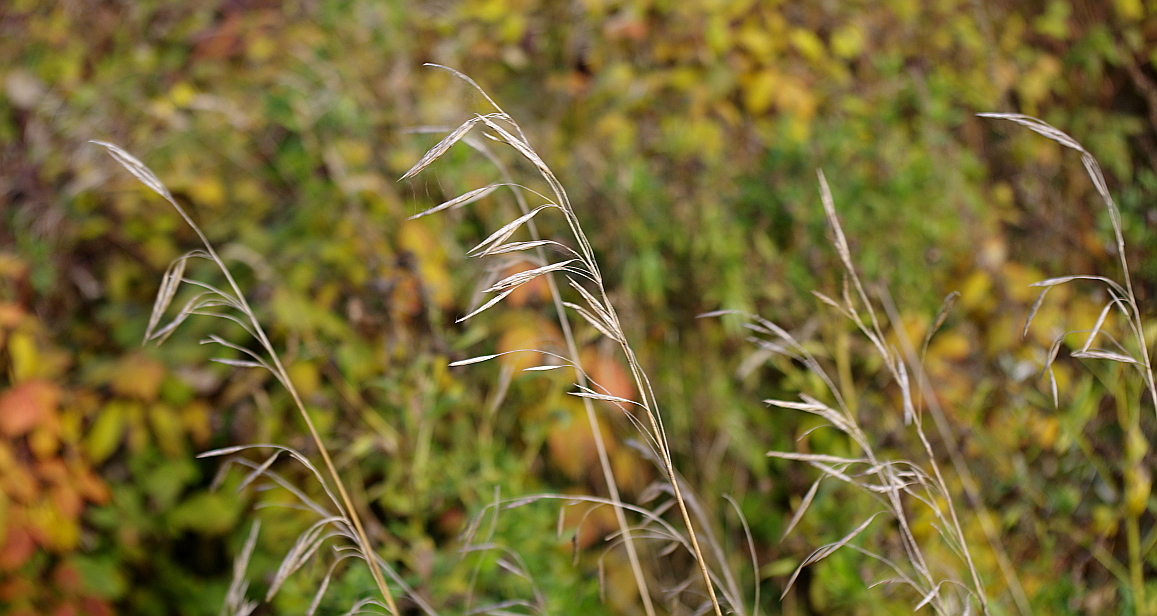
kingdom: Plantae
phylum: Tracheophyta
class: Liliopsida
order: Poales
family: Poaceae
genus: Bromus
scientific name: Bromus inermis
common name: Smooth brome
